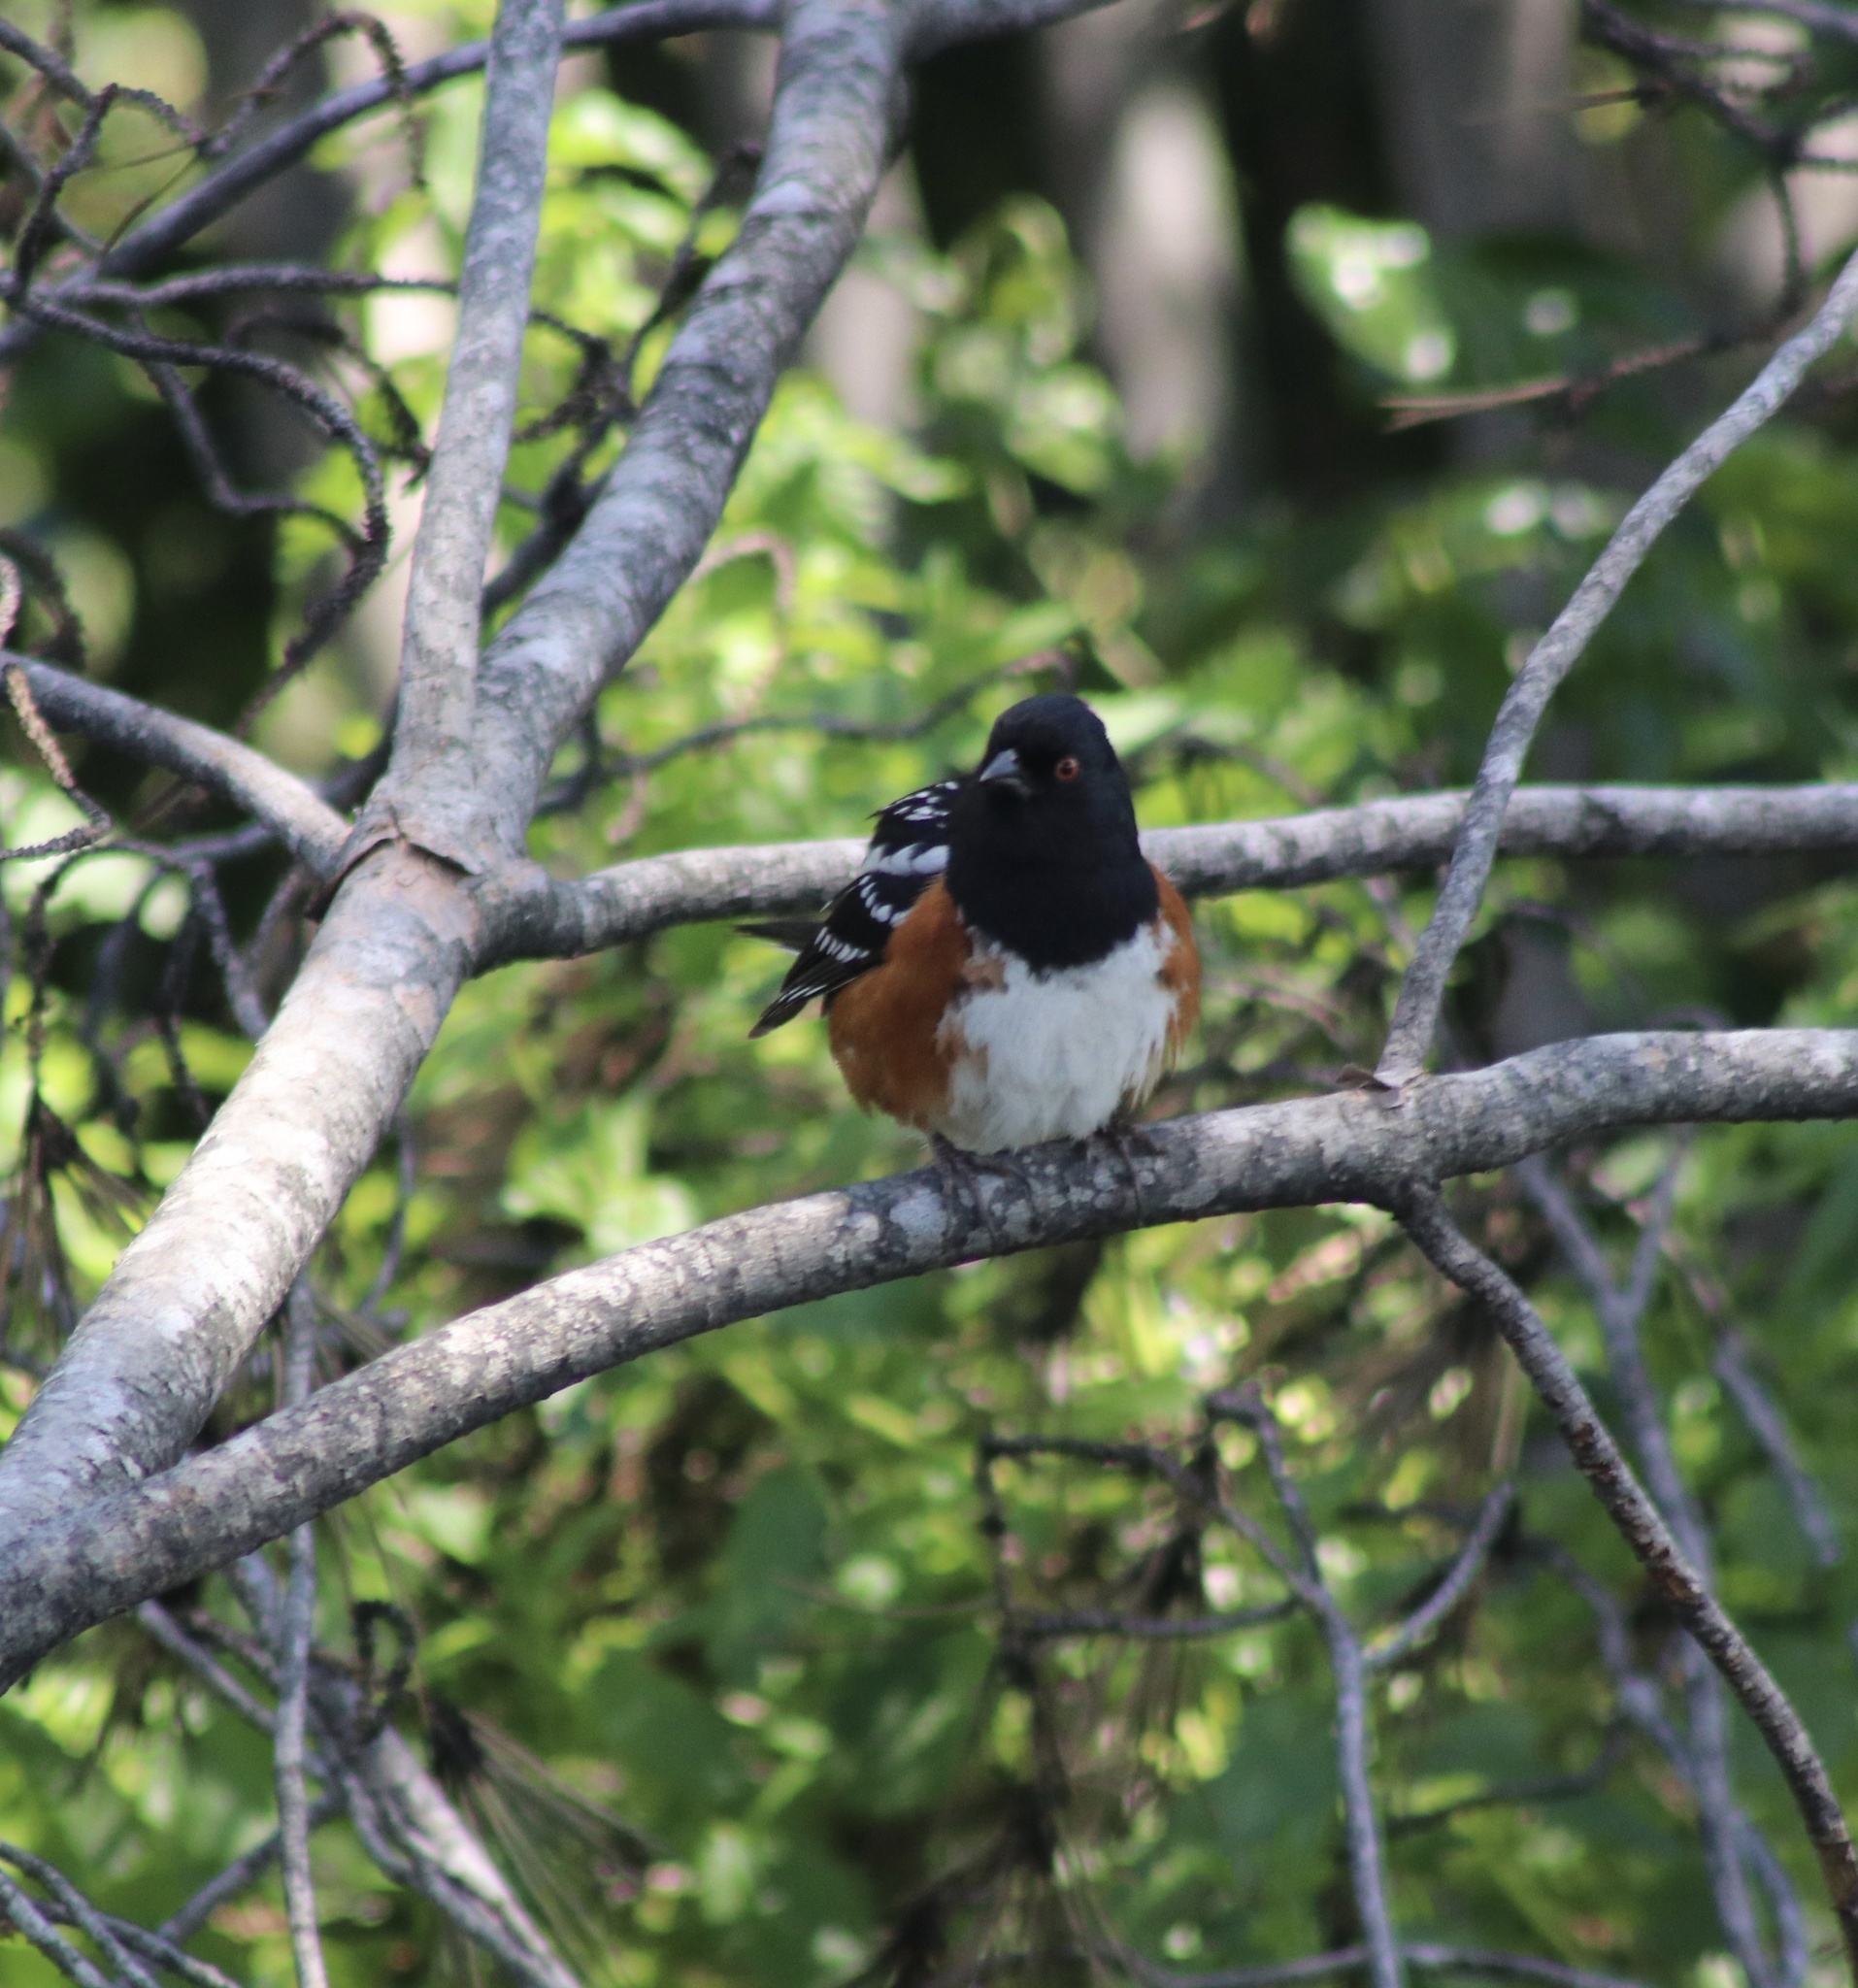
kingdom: Animalia
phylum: Chordata
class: Aves
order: Passeriformes
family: Passerellidae
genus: Pipilo
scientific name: Pipilo maculatus
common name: Spotted towhee
